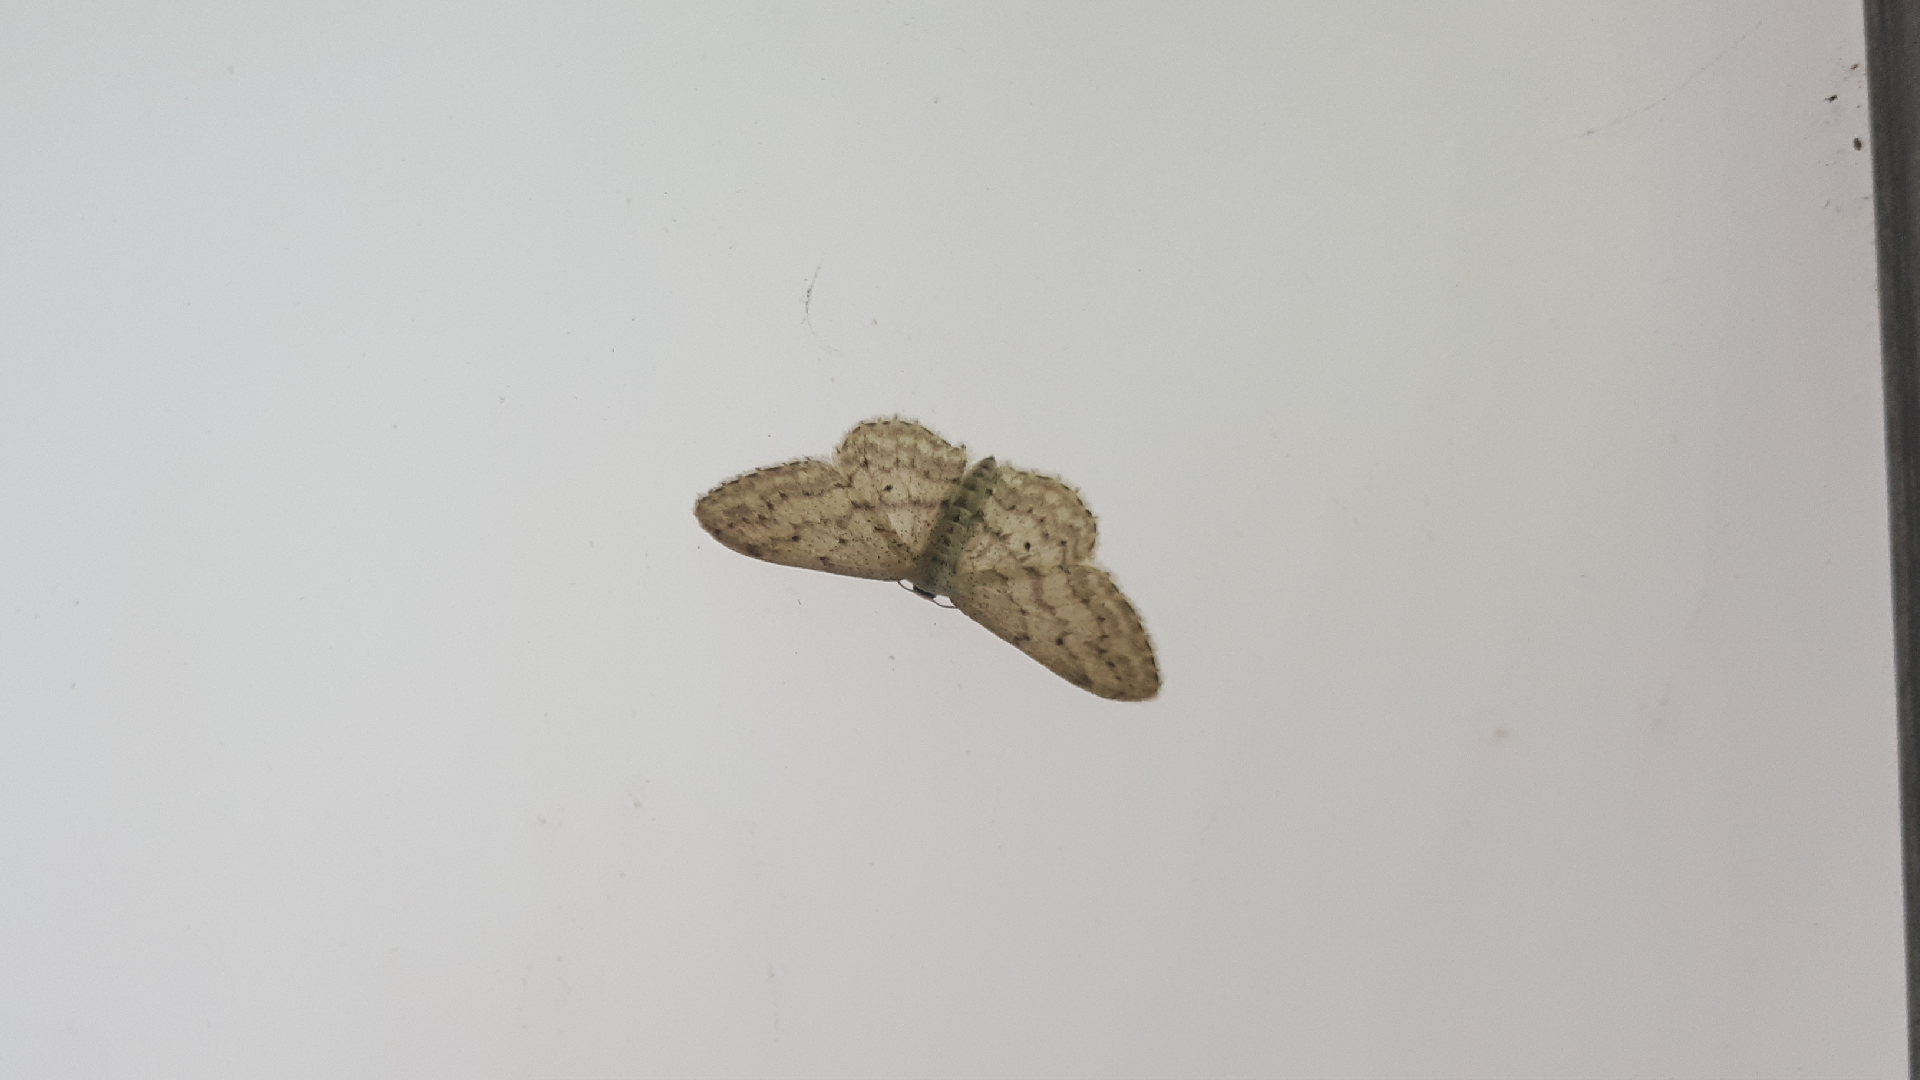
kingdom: Animalia
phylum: Arthropoda
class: Insecta
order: Lepidoptera
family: Geometridae
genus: Idaea
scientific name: Idaea seriata
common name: Small dusty wave
